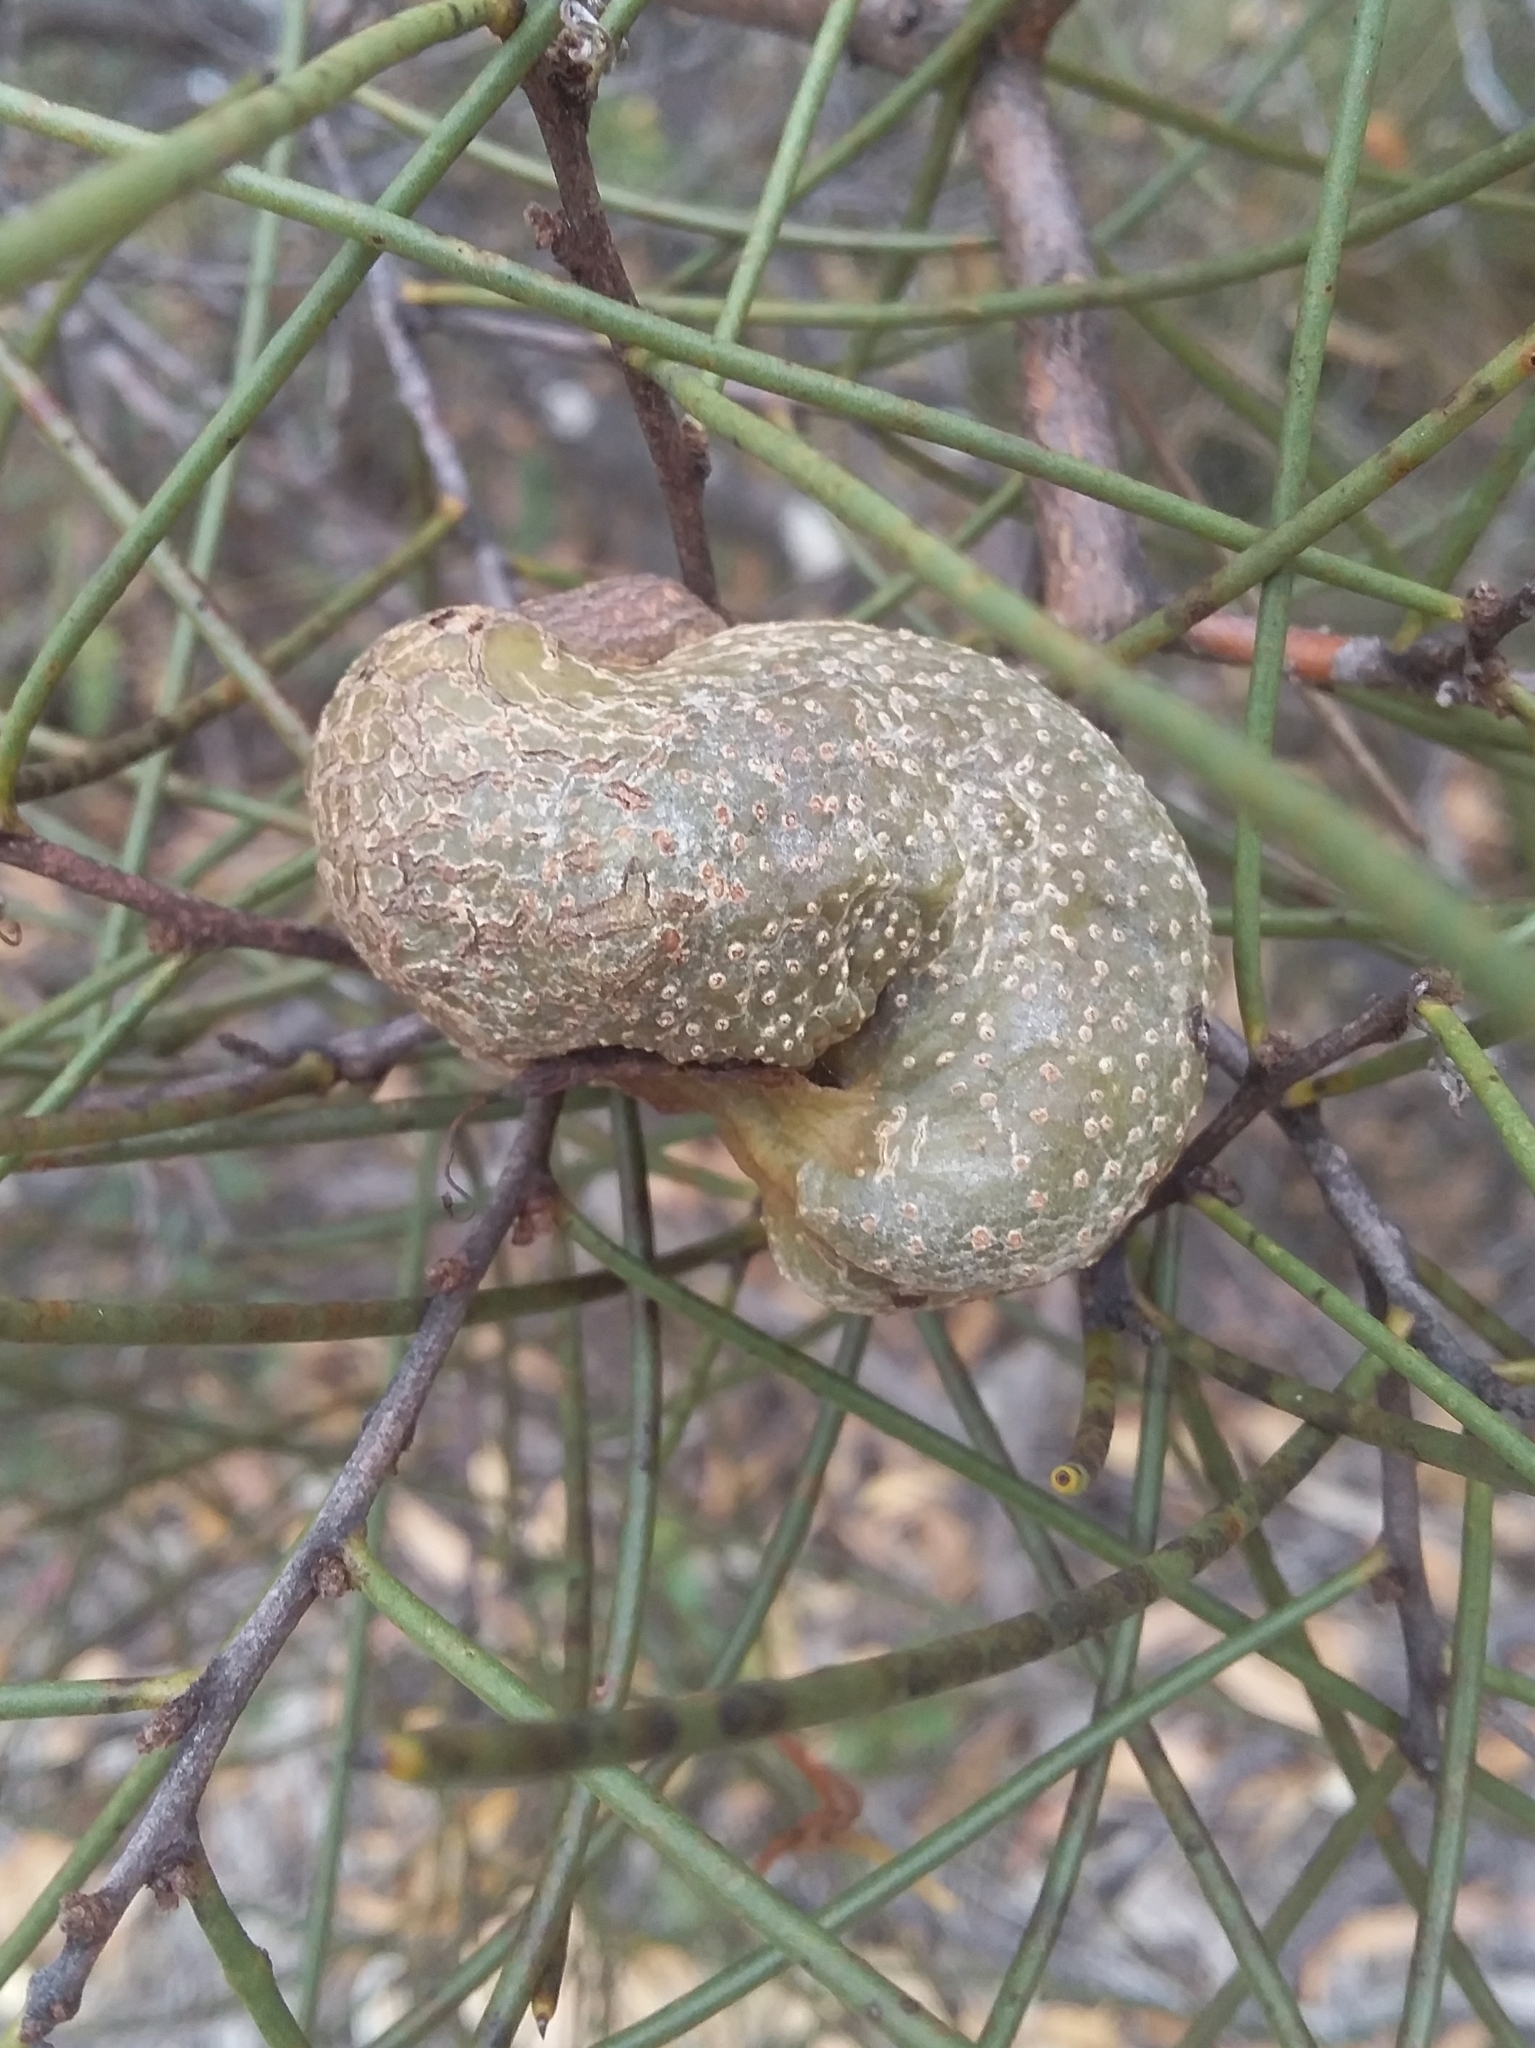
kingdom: Plantae
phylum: Tracheophyta
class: Magnoliopsida
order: Proteales
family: Proteaceae
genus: Hakea
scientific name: Hakea rostrata
